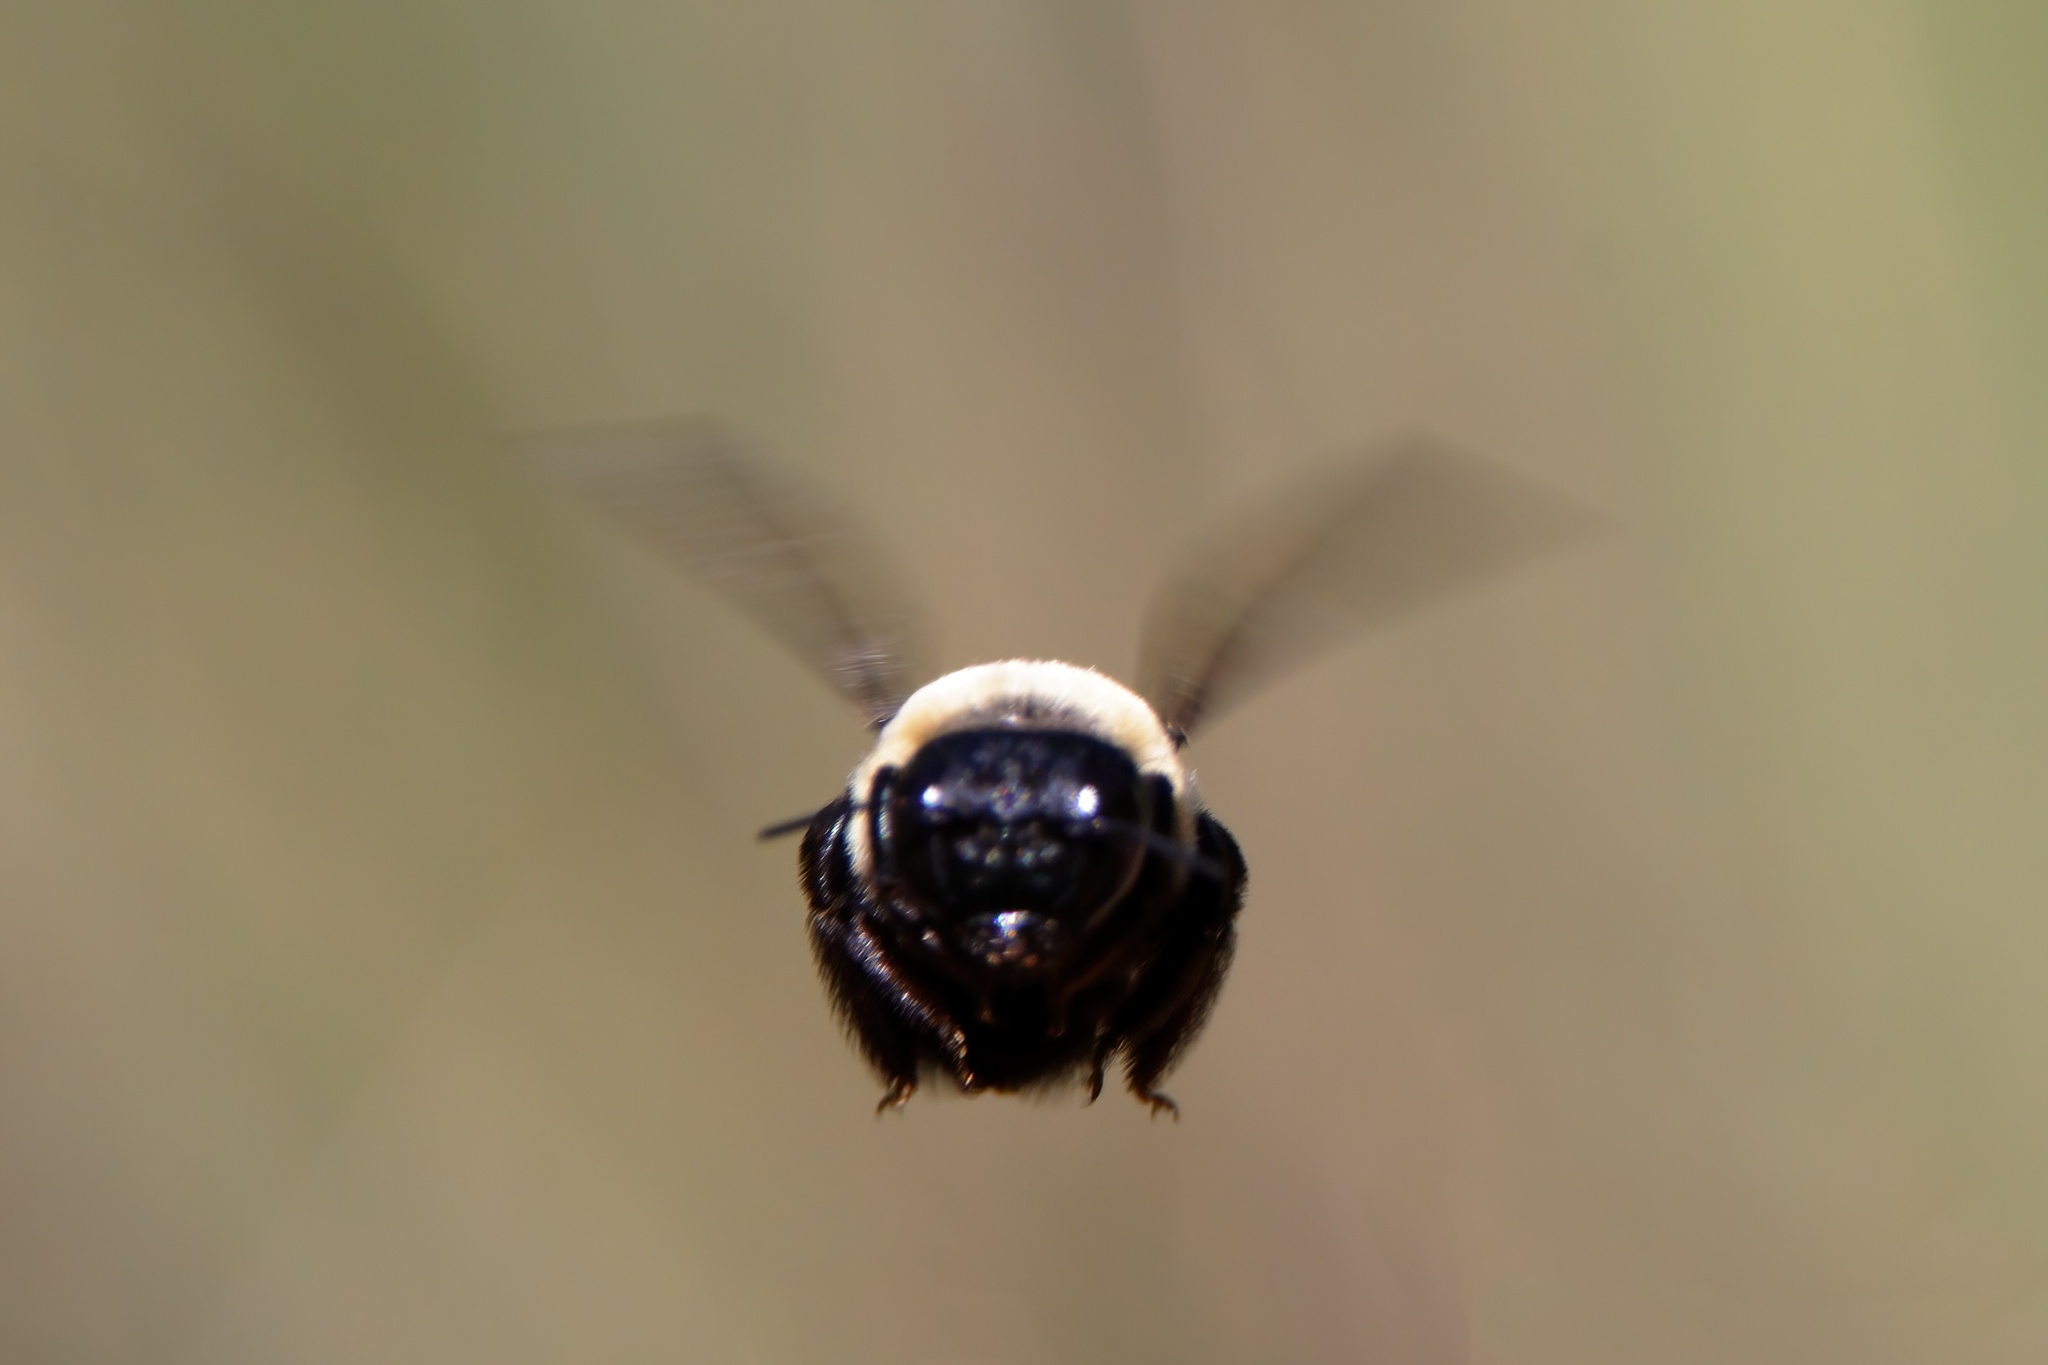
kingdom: Animalia
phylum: Arthropoda
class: Insecta
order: Hymenoptera
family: Apidae
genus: Xylocopa
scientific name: Xylocopa virginica
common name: Carpenter bee
